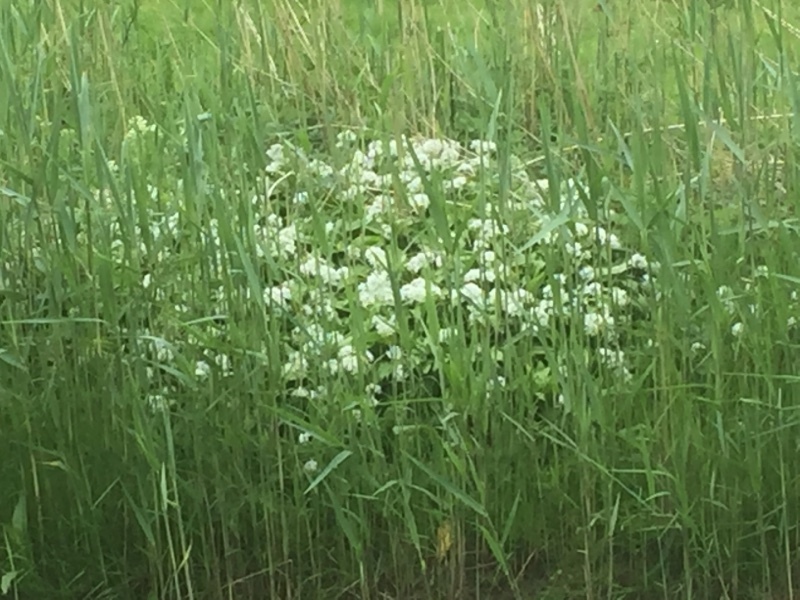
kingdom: Plantae
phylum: Tracheophyta
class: Liliopsida
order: Asparagales
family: Amaryllidaceae
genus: Allium
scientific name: Allium ursinum
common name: Ramsons
